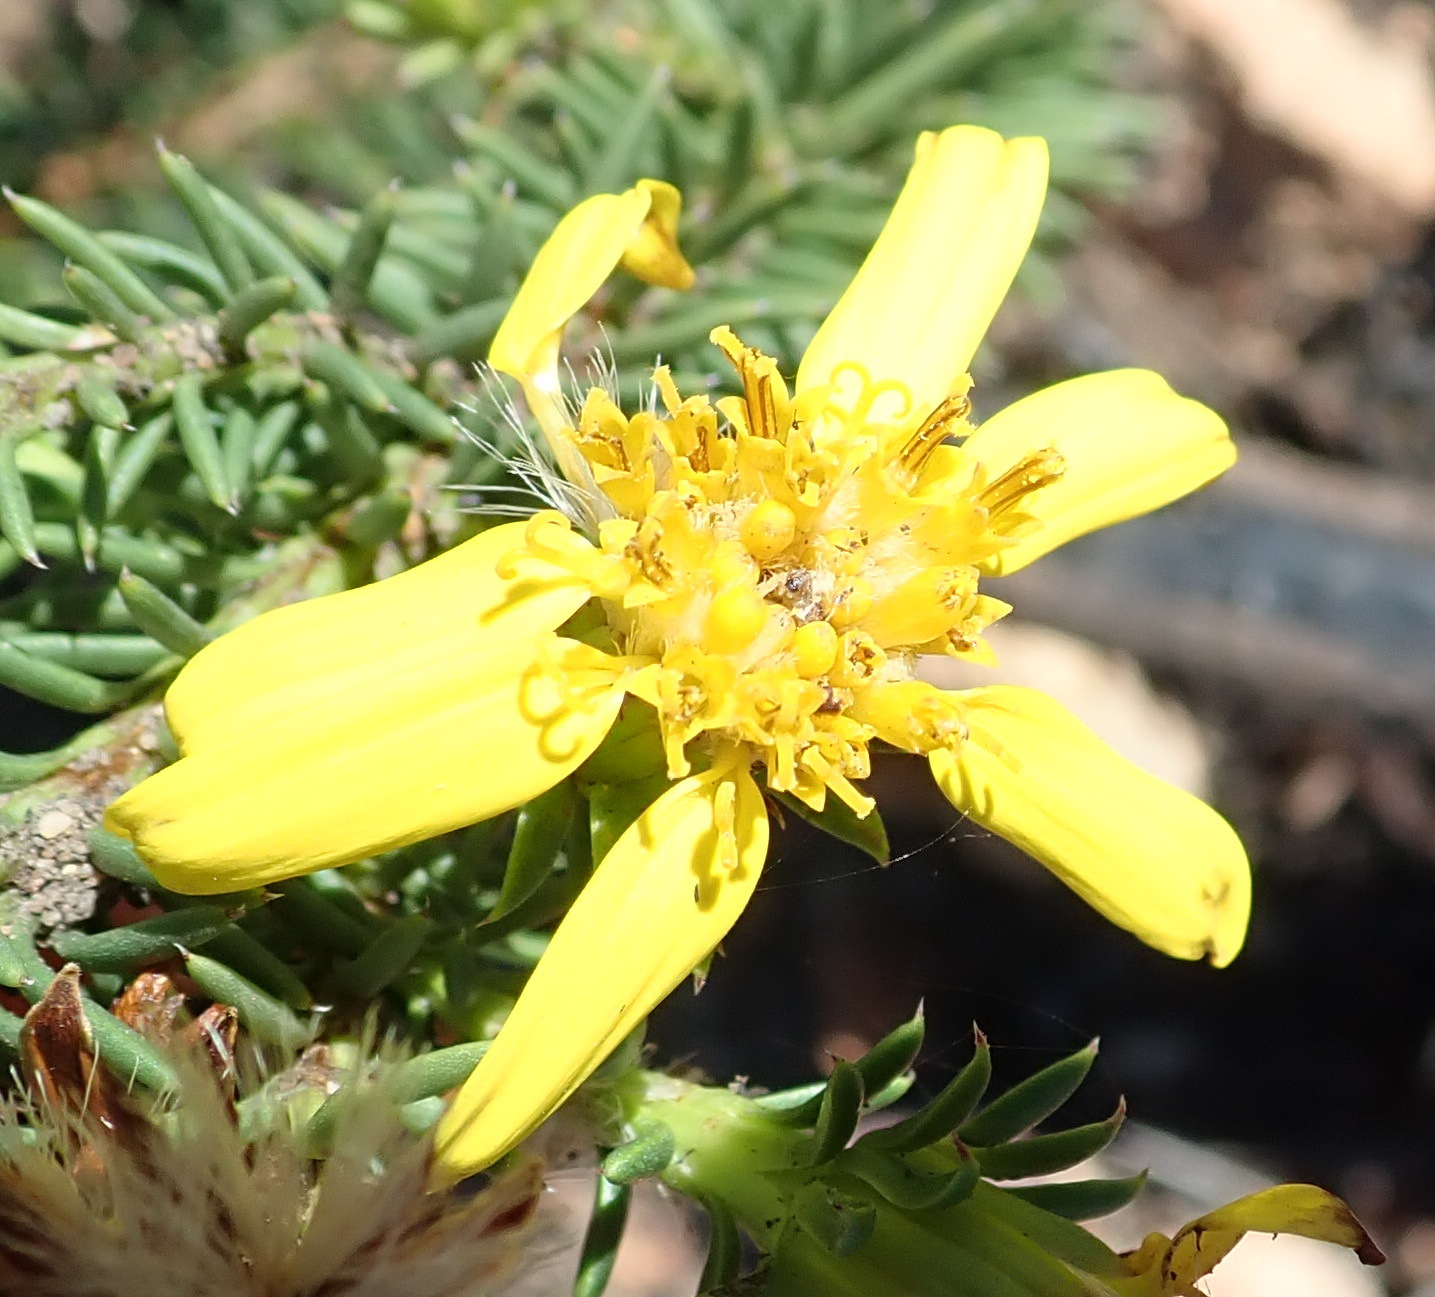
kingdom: Plantae
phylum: Tracheophyta
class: Magnoliopsida
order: Asterales
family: Asteraceae
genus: Senecio
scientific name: Senecio pinifolius
